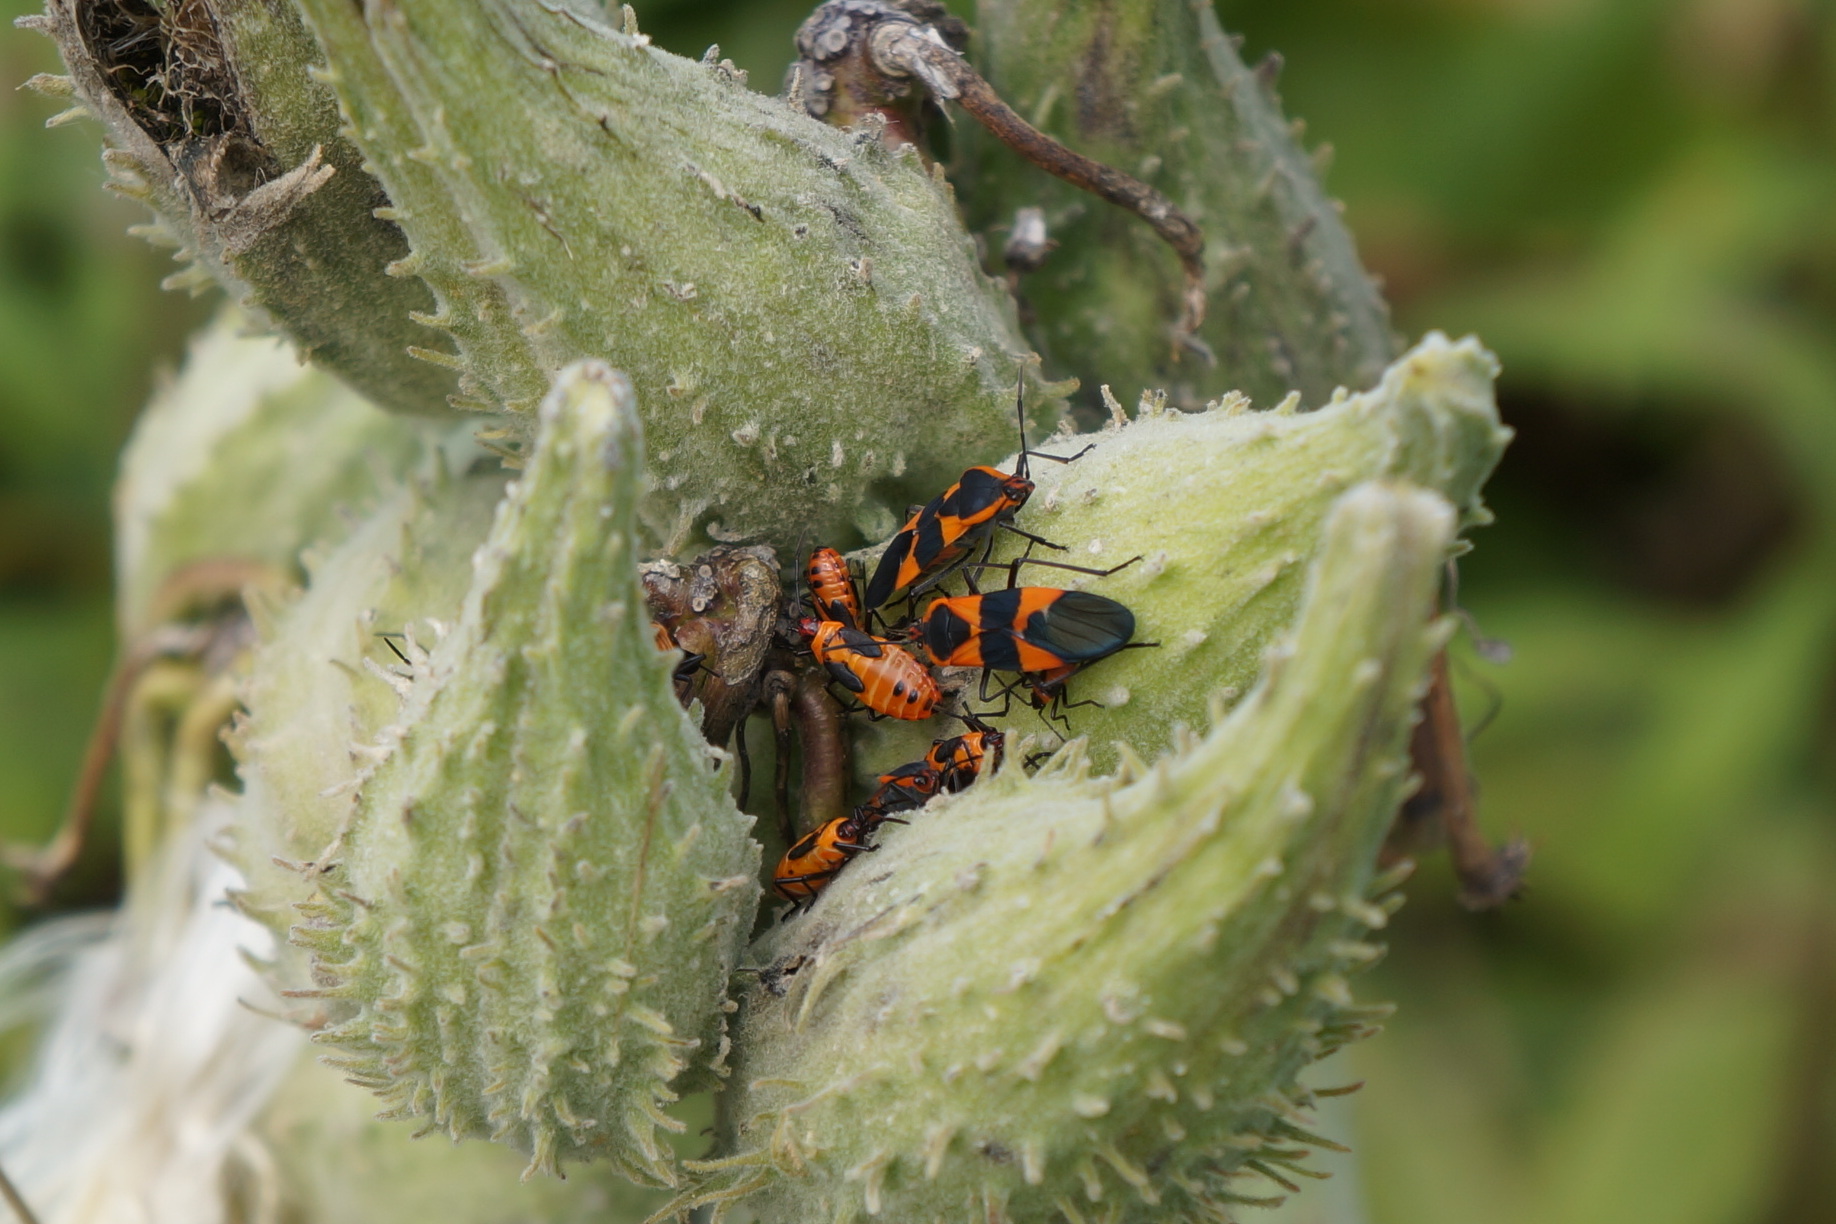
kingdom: Animalia
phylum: Arthropoda
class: Insecta
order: Hemiptera
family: Lygaeidae
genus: Oncopeltus
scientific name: Oncopeltus fasciatus
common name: Large milkweed bug
